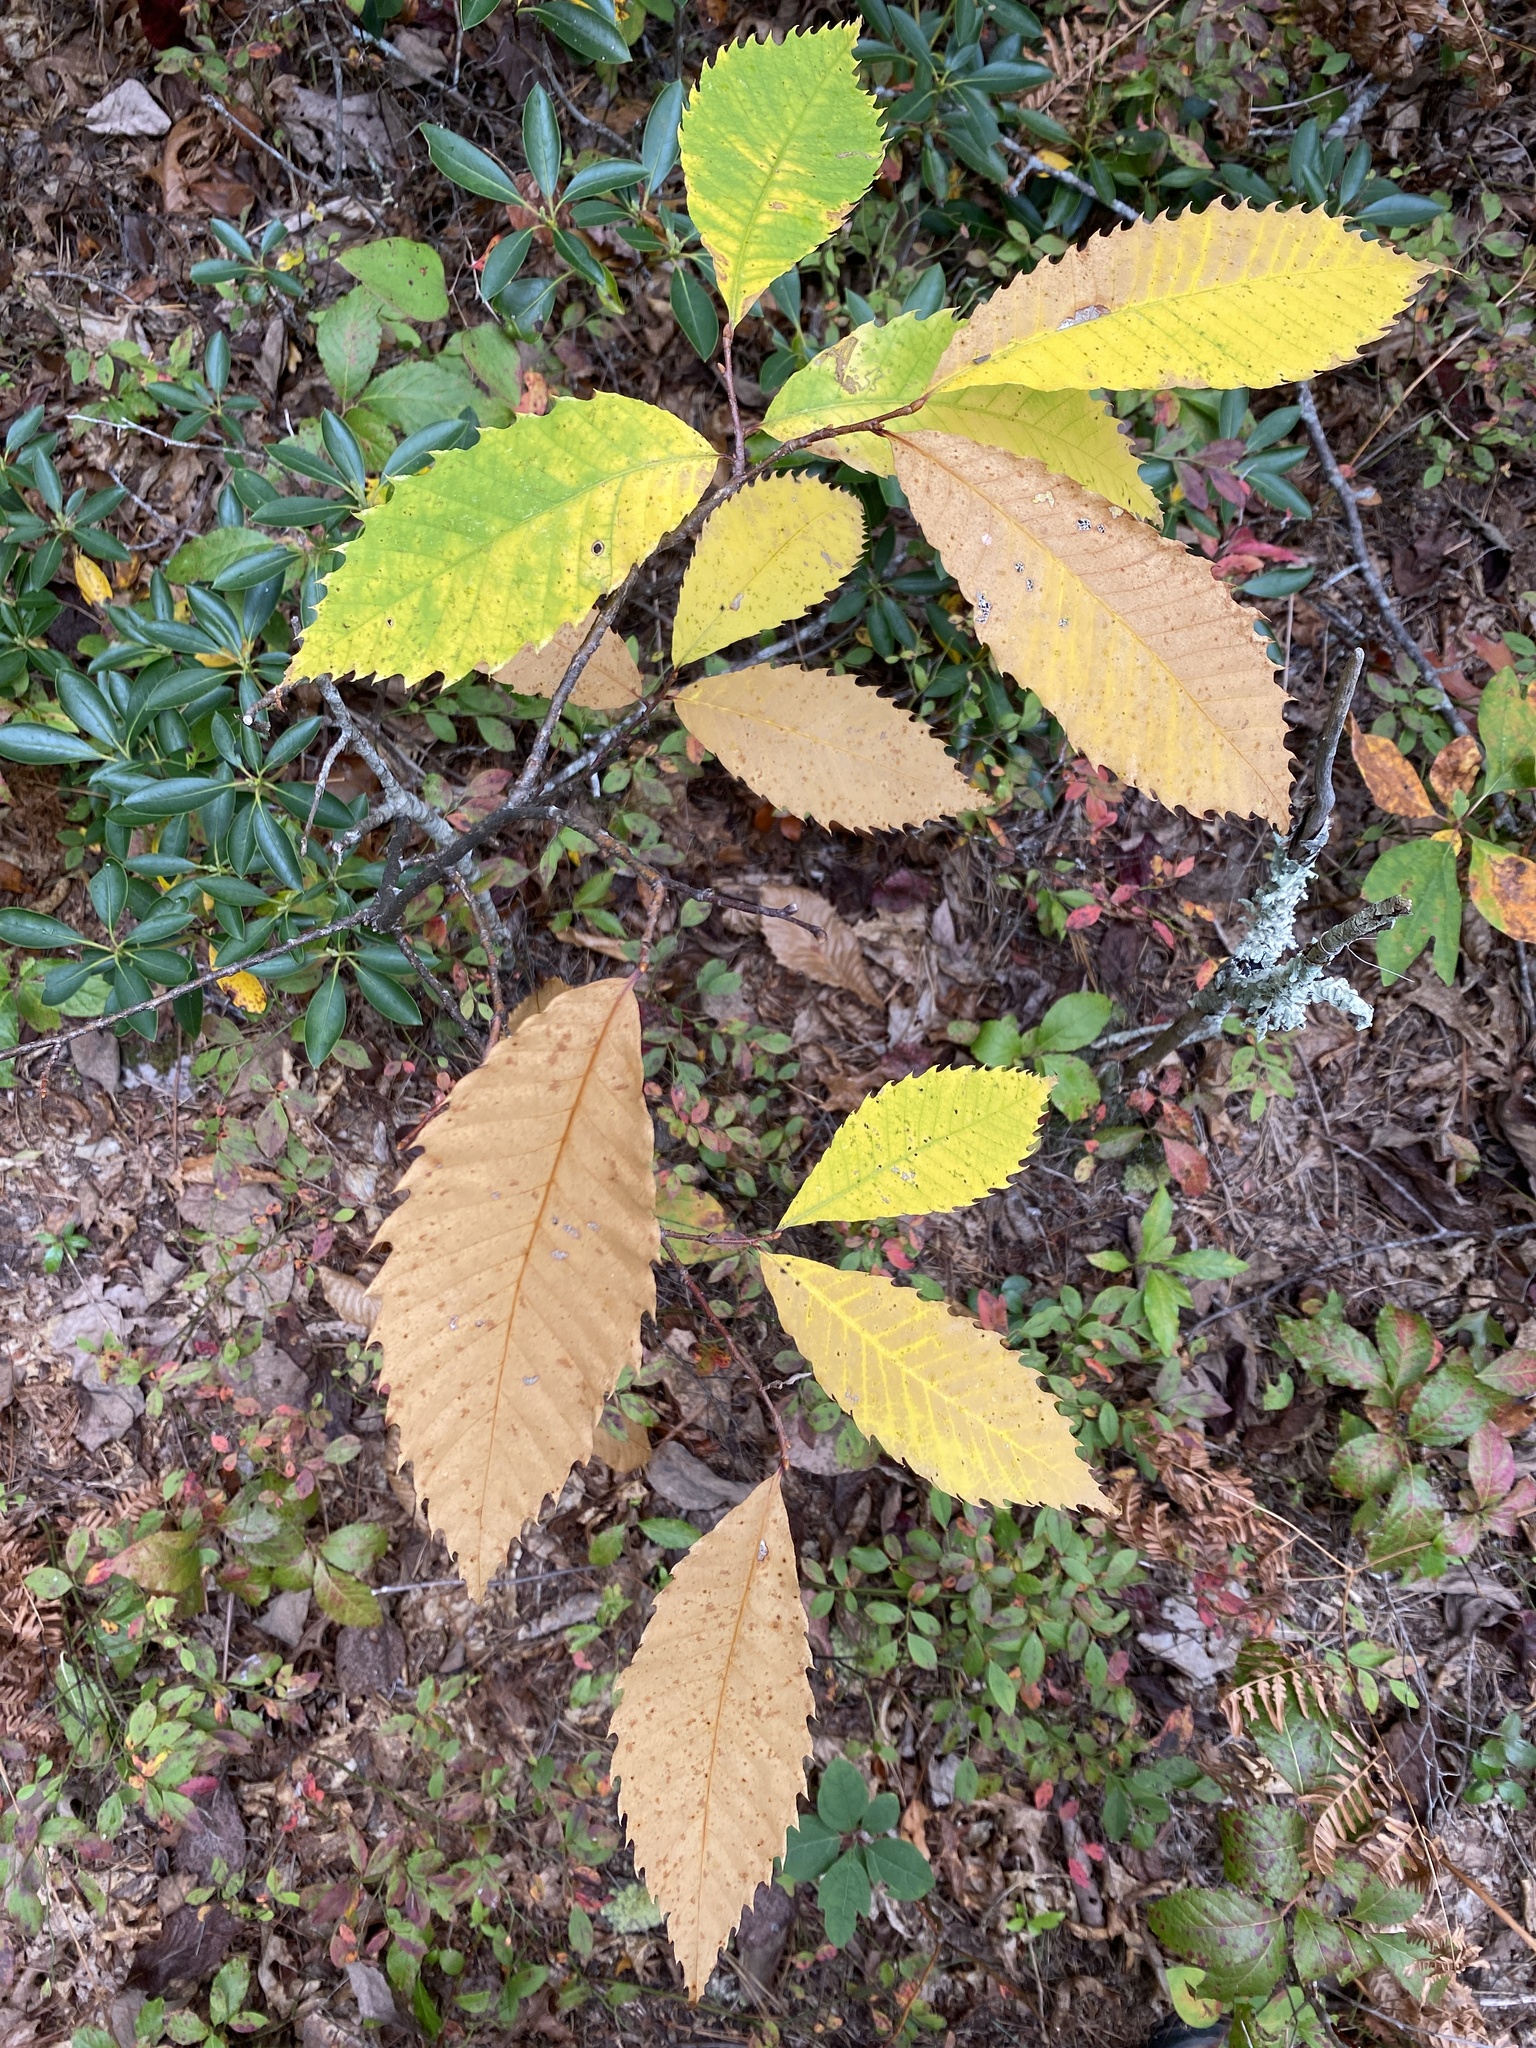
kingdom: Plantae
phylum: Tracheophyta
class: Magnoliopsida
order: Fagales
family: Fagaceae
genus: Castanea
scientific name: Castanea dentata
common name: American chestnut
